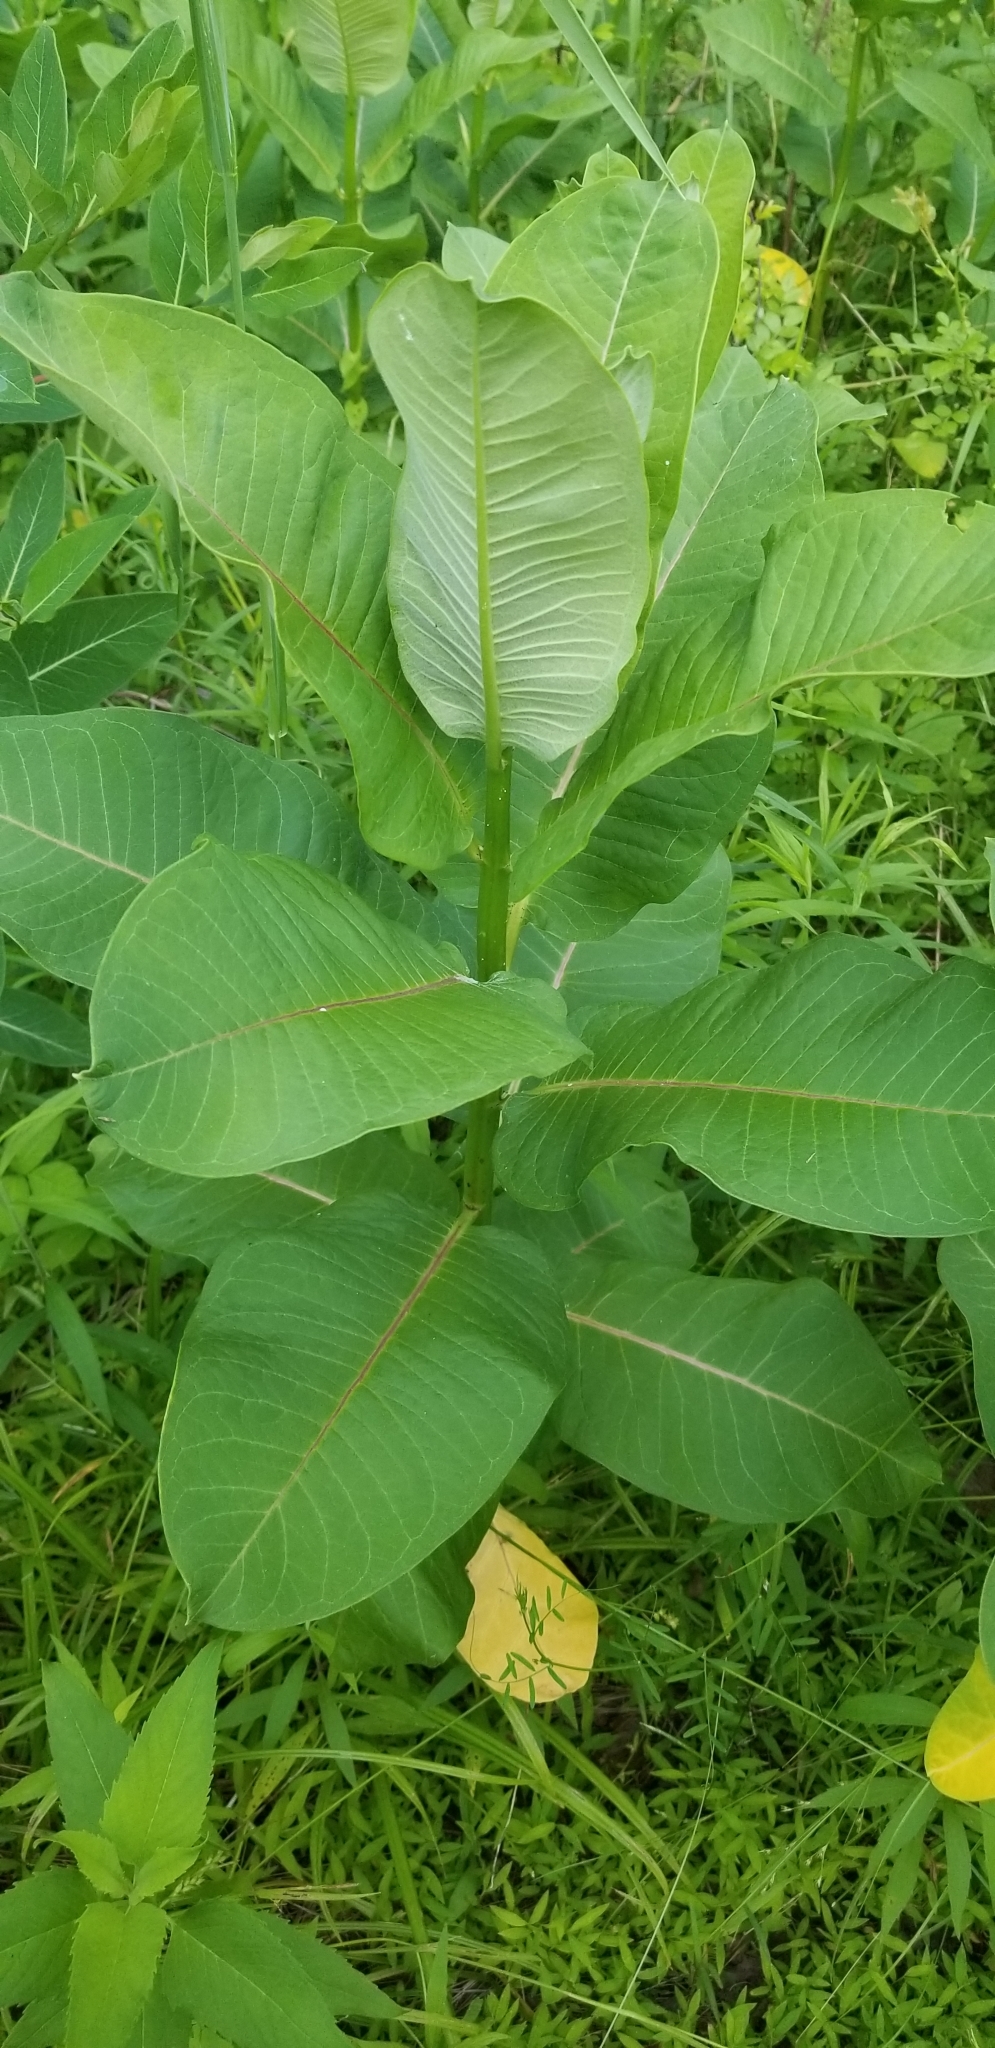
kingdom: Plantae
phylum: Tracheophyta
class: Magnoliopsida
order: Gentianales
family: Apocynaceae
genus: Asclepias
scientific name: Asclepias syriaca
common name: Common milkweed
